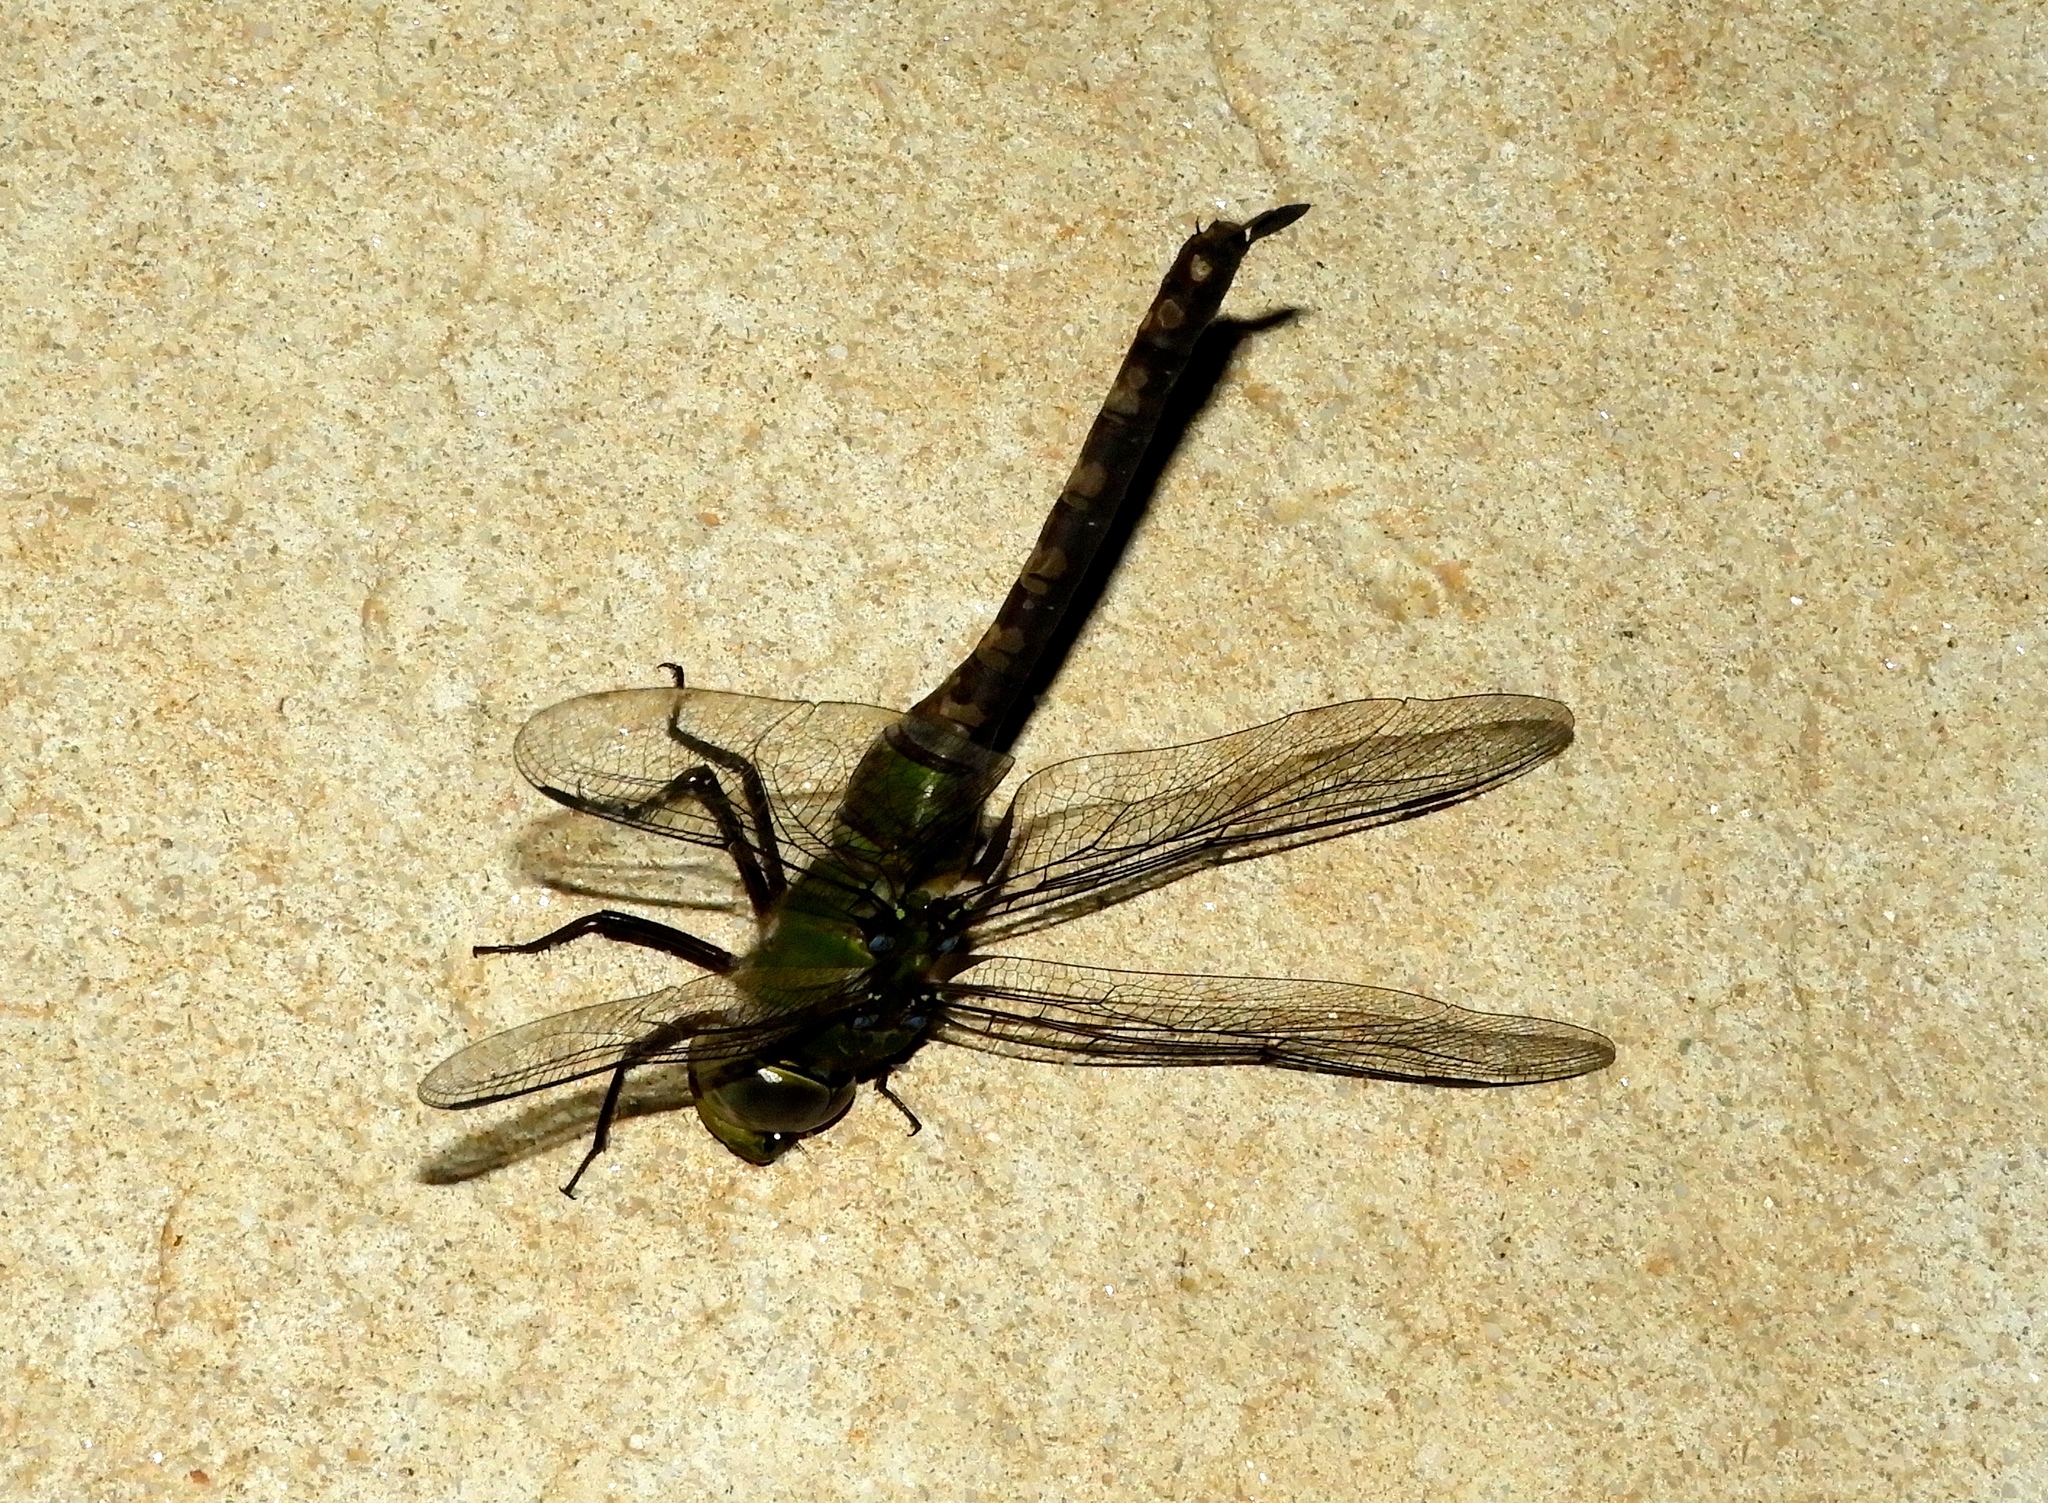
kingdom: Animalia
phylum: Arthropoda
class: Insecta
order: Odonata
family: Aeshnidae
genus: Anax
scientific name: Anax amazili
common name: Amazon darner
